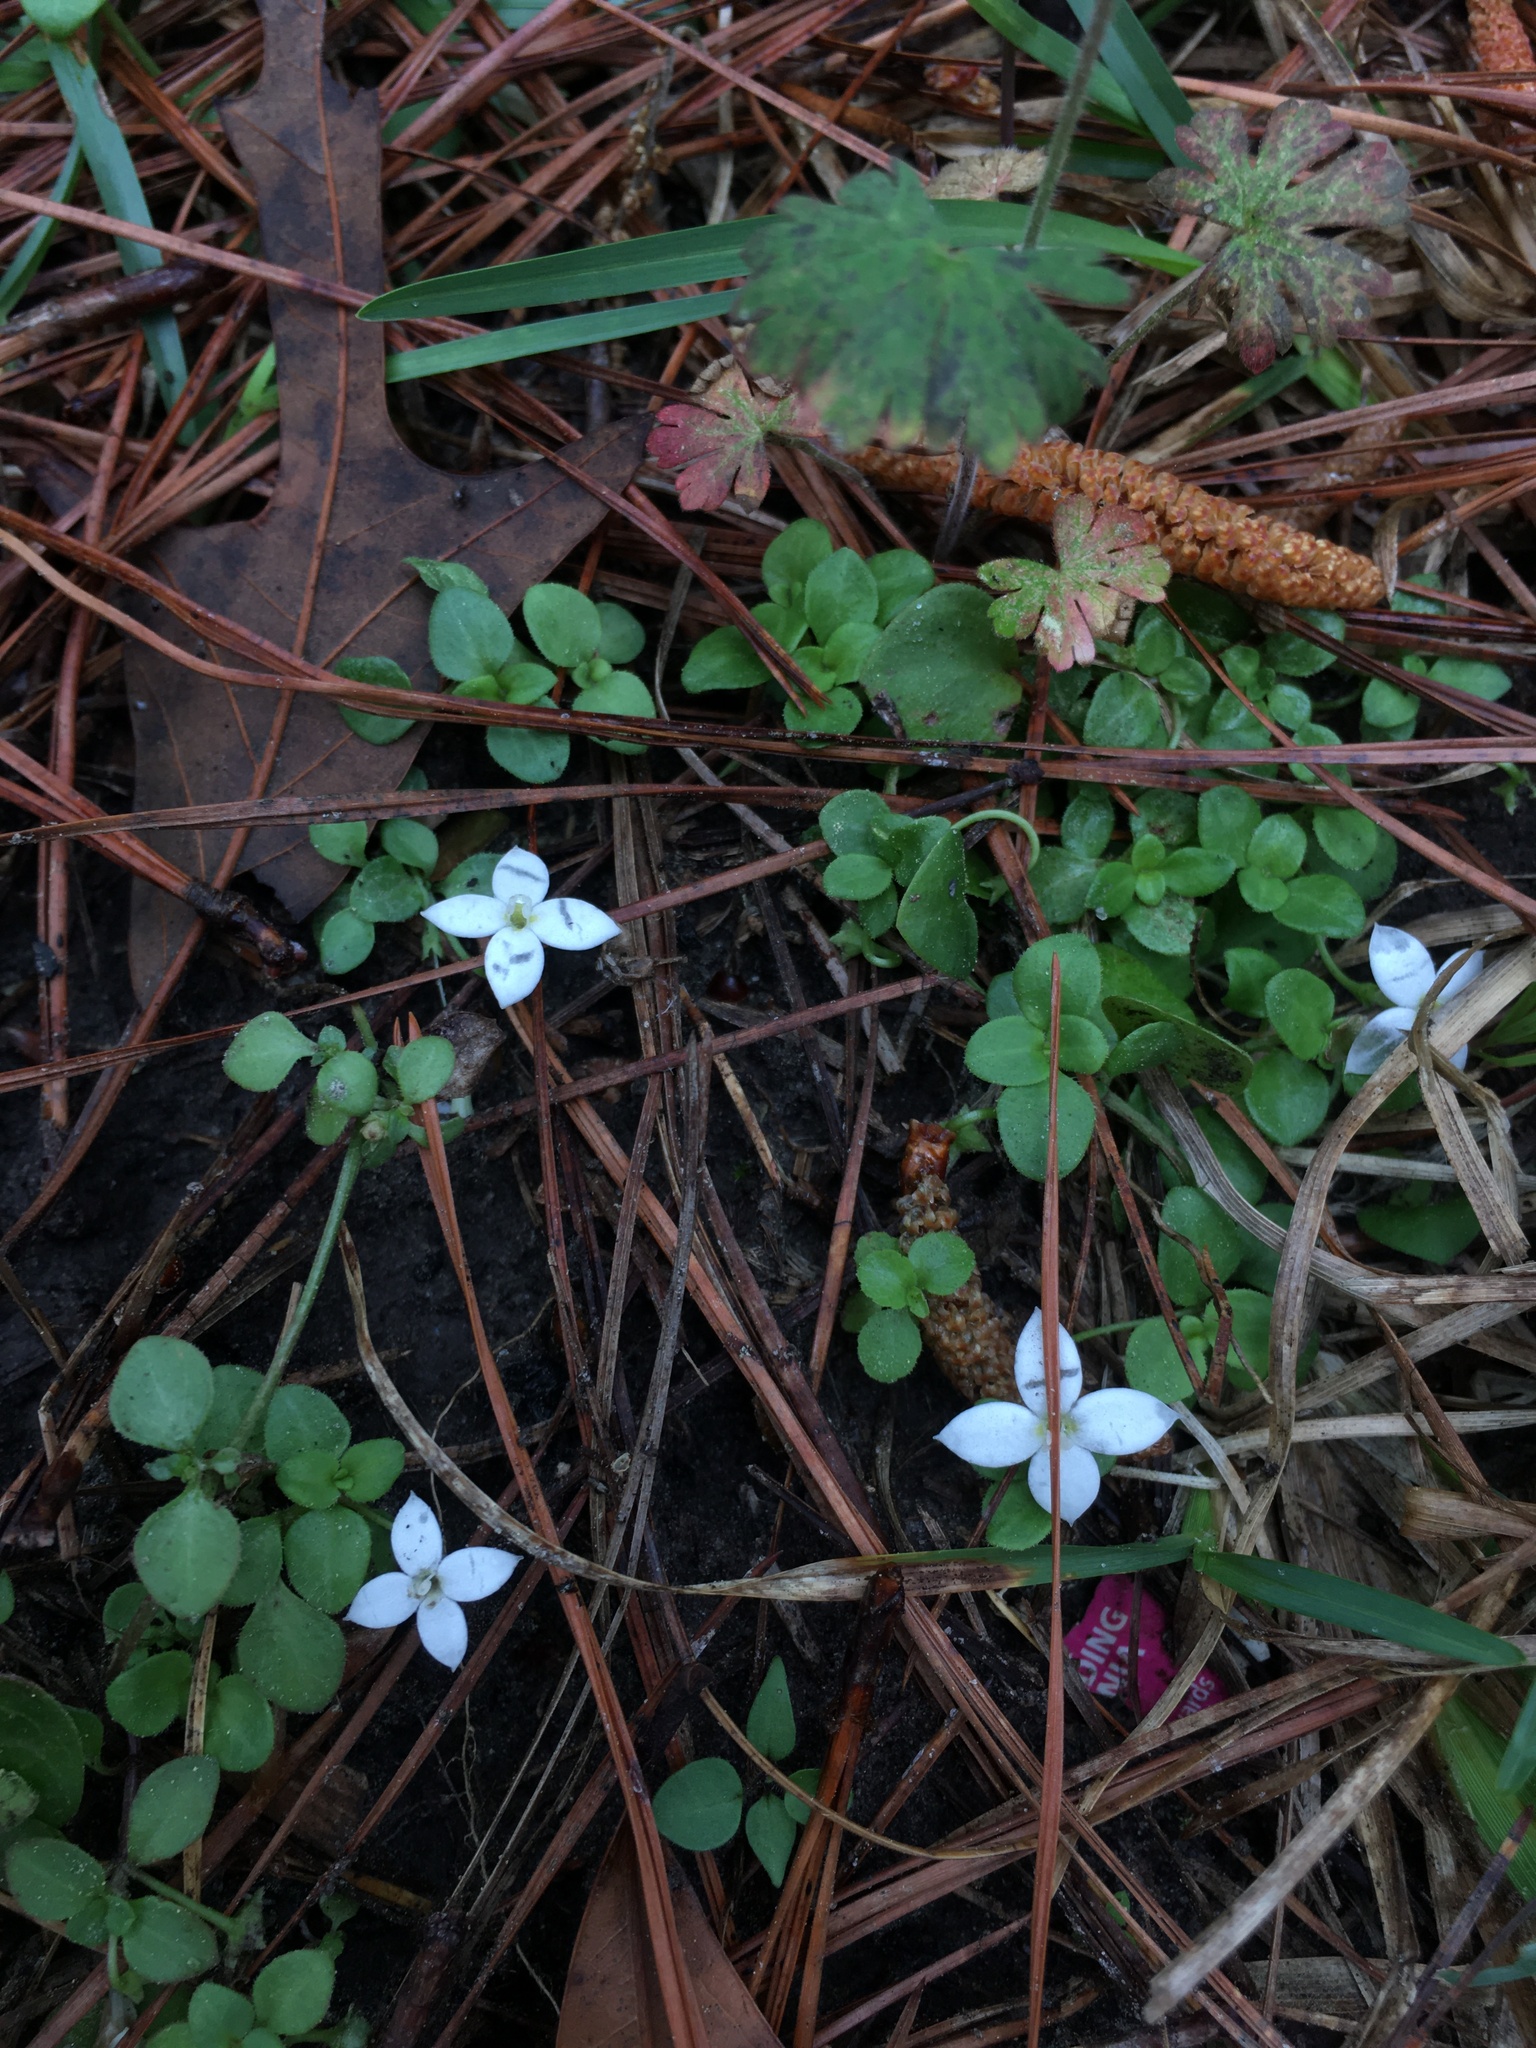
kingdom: Plantae
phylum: Tracheophyta
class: Magnoliopsida
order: Gentianales
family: Rubiaceae
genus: Houstonia
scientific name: Houstonia procumbens
